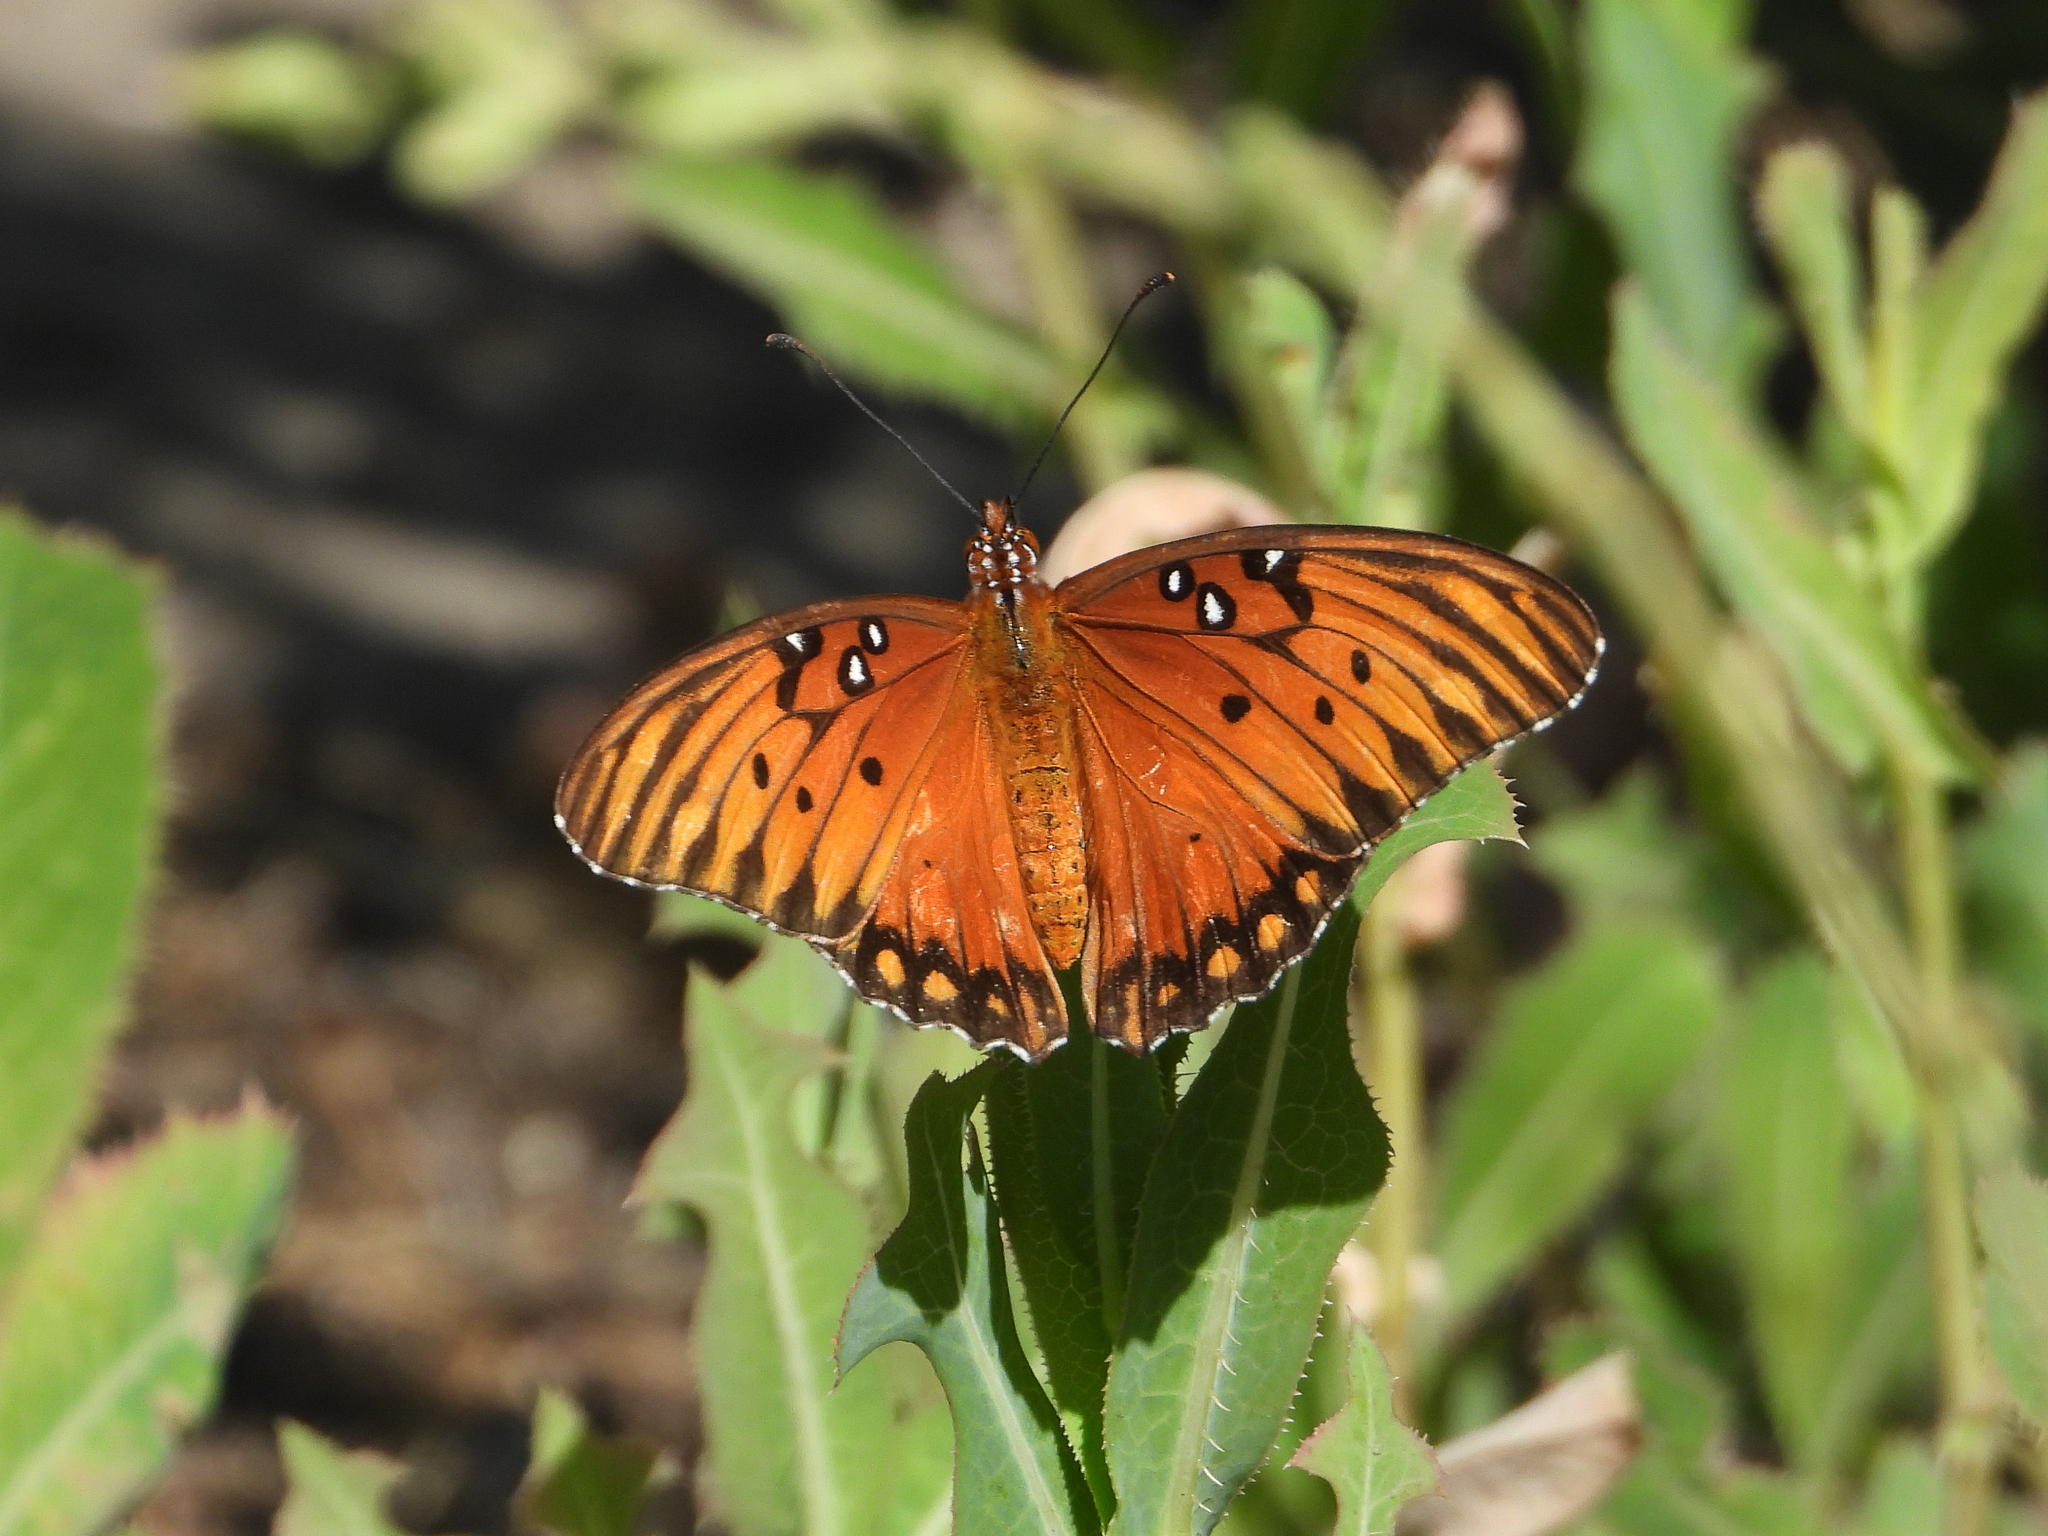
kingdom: Animalia
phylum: Arthropoda
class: Insecta
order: Lepidoptera
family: Nymphalidae
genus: Dione
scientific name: Dione vanillae
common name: Gulf fritillary
